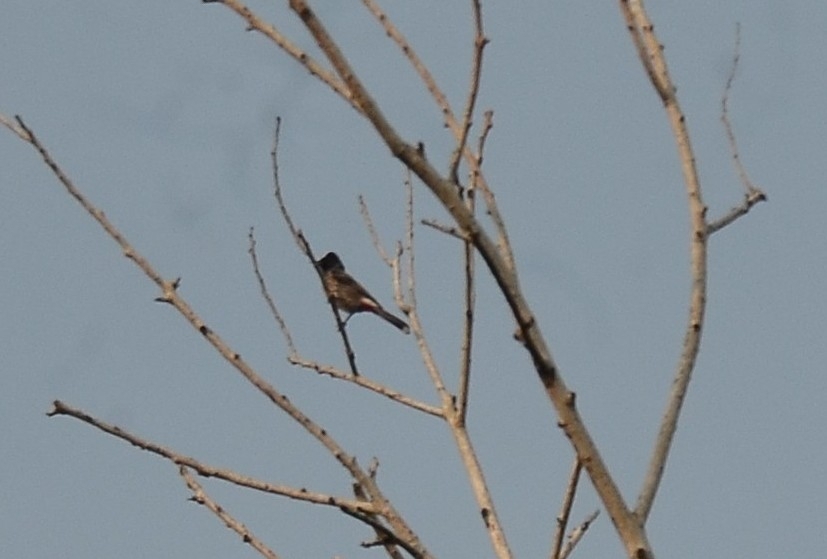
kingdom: Animalia
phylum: Chordata
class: Aves
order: Passeriformes
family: Pycnonotidae
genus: Pycnonotus
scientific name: Pycnonotus cafer
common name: Red-vented bulbul
